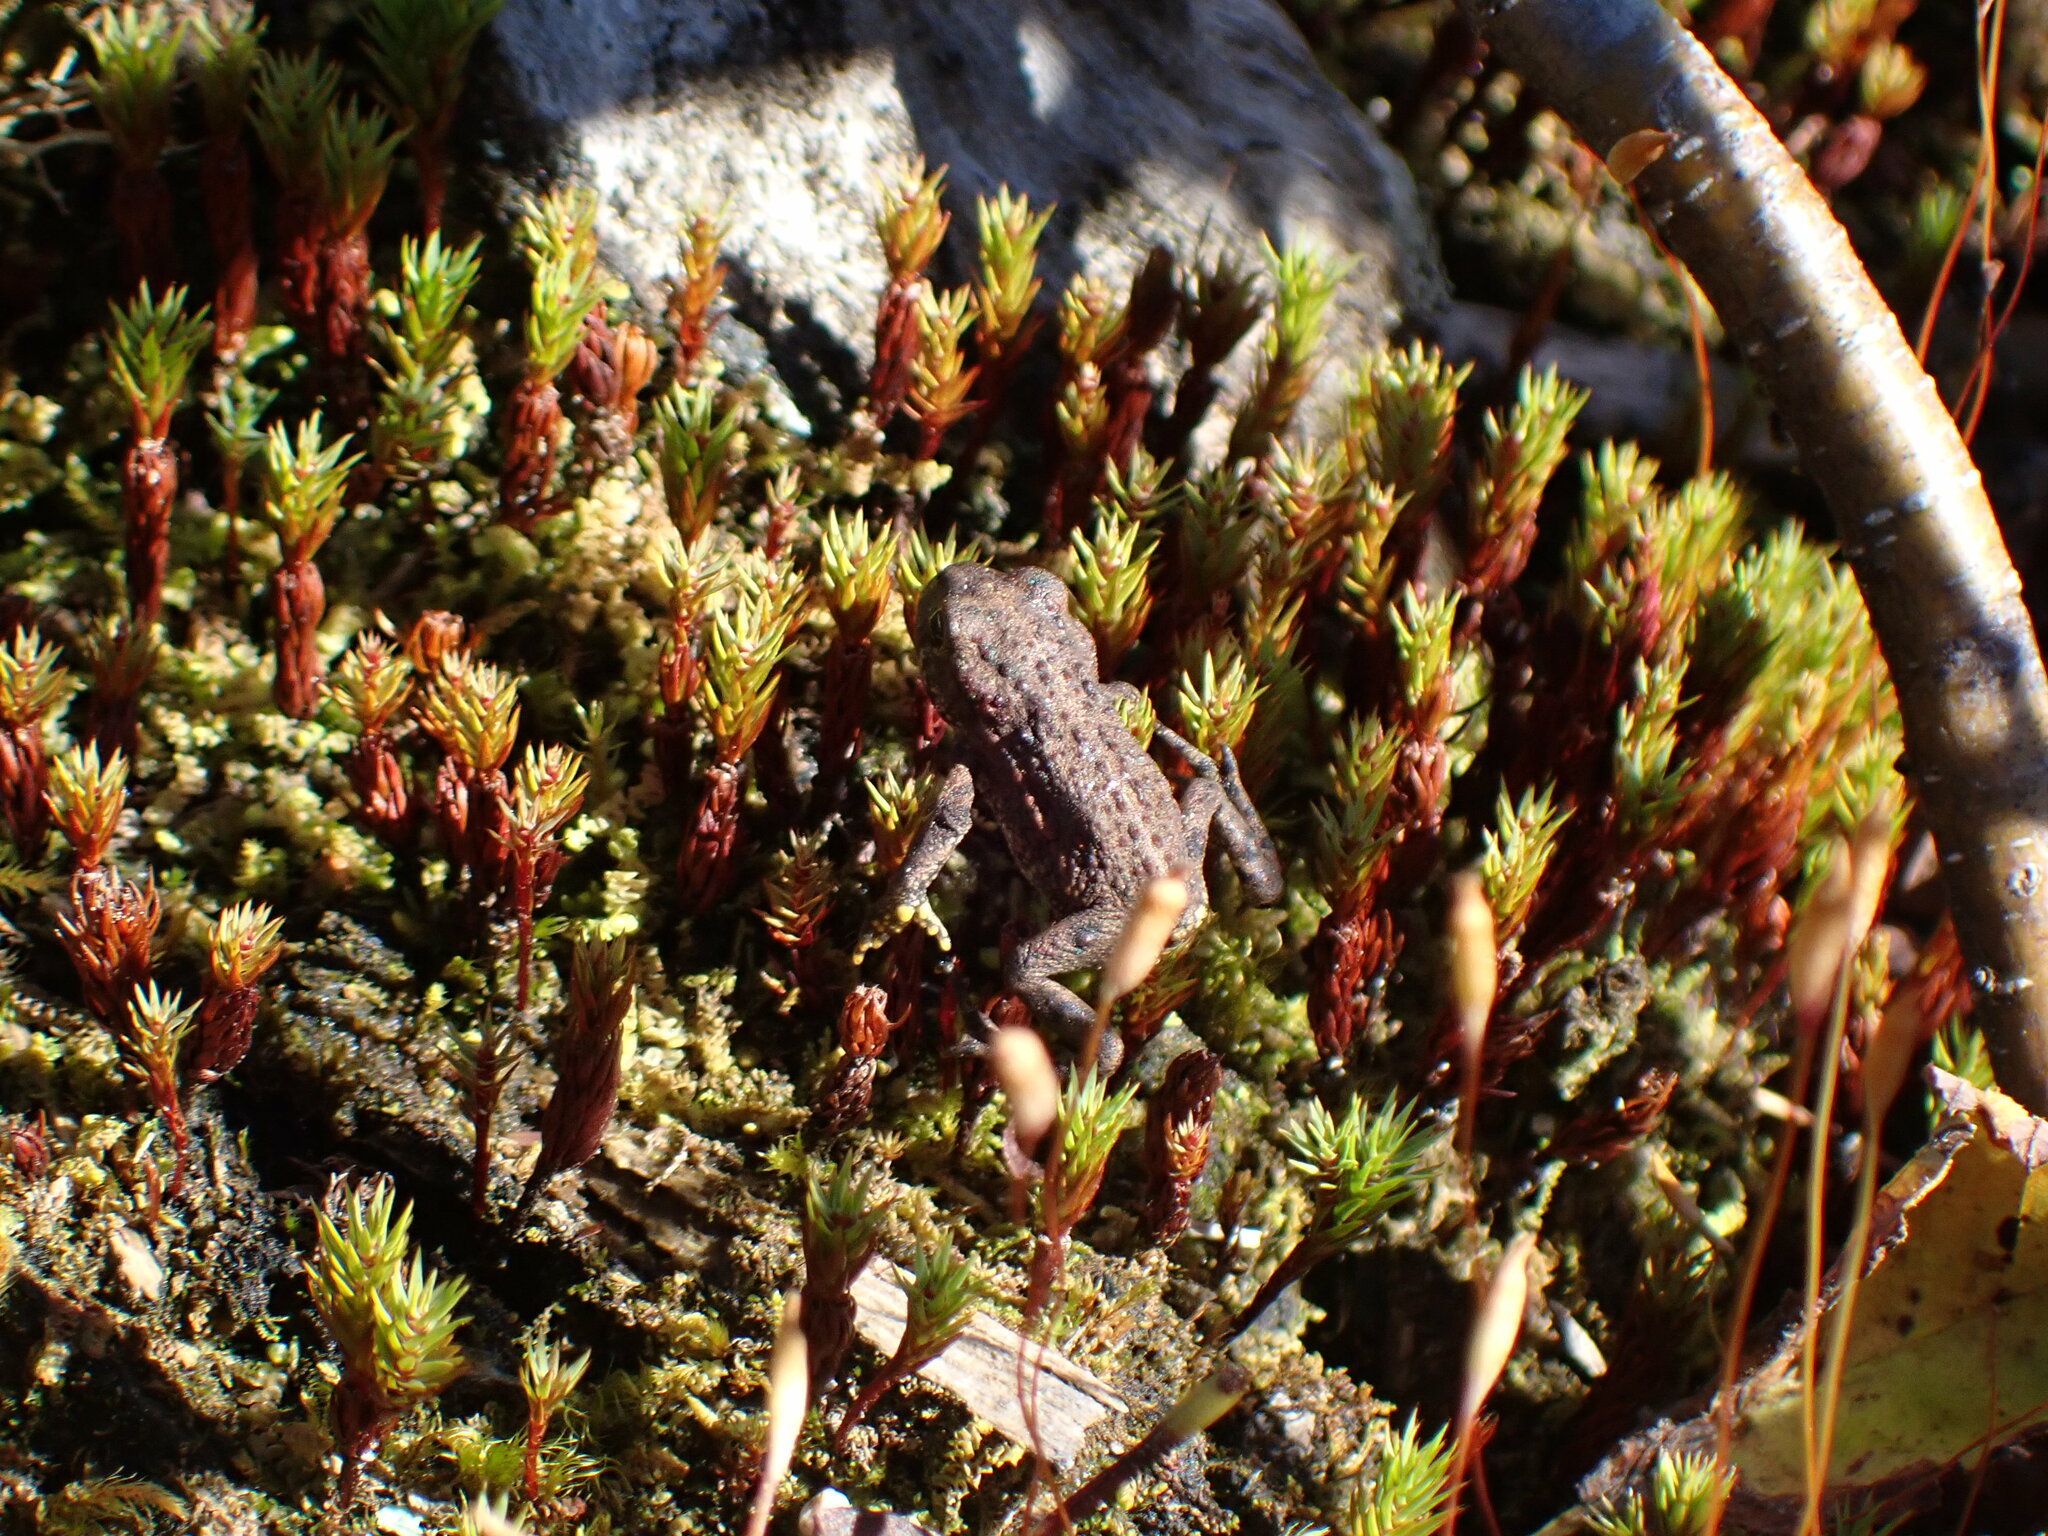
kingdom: Plantae
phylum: Bryophyta
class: Polytrichopsida
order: Polytrichales
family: Polytrichaceae
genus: Pogonatum
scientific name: Pogonatum urnigerum
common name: Urn hair moss
